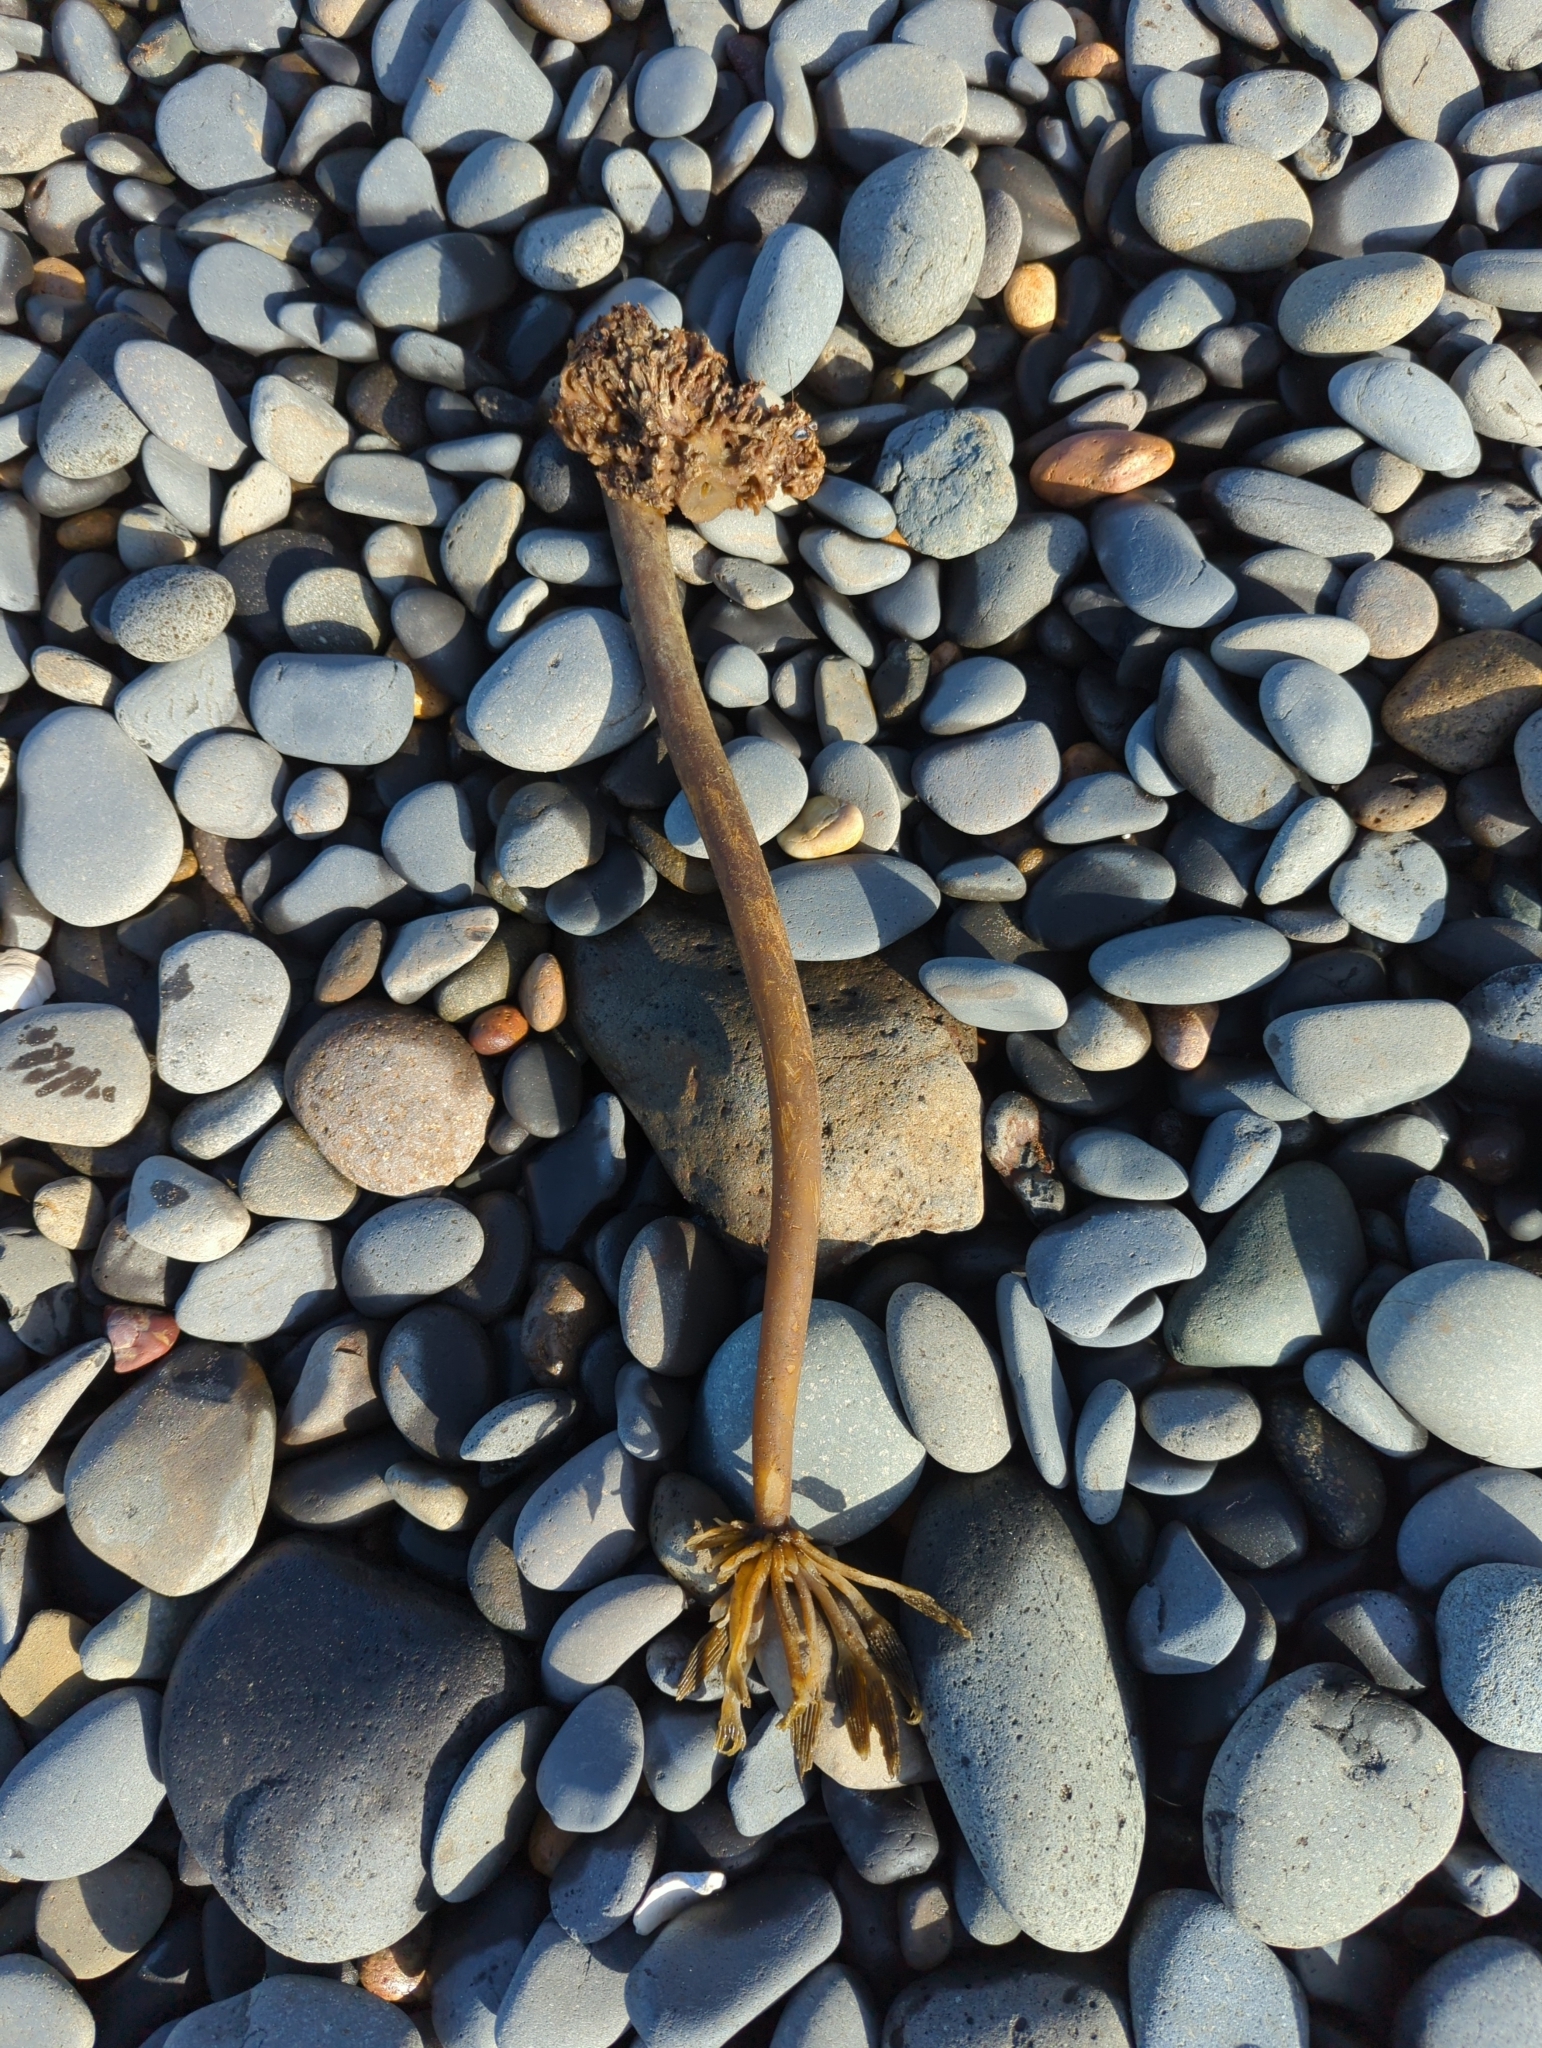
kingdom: Chromista
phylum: Ochrophyta
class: Phaeophyceae
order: Laminariales
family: Laminariaceae
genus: Postelsia
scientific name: Postelsia palmiformis
